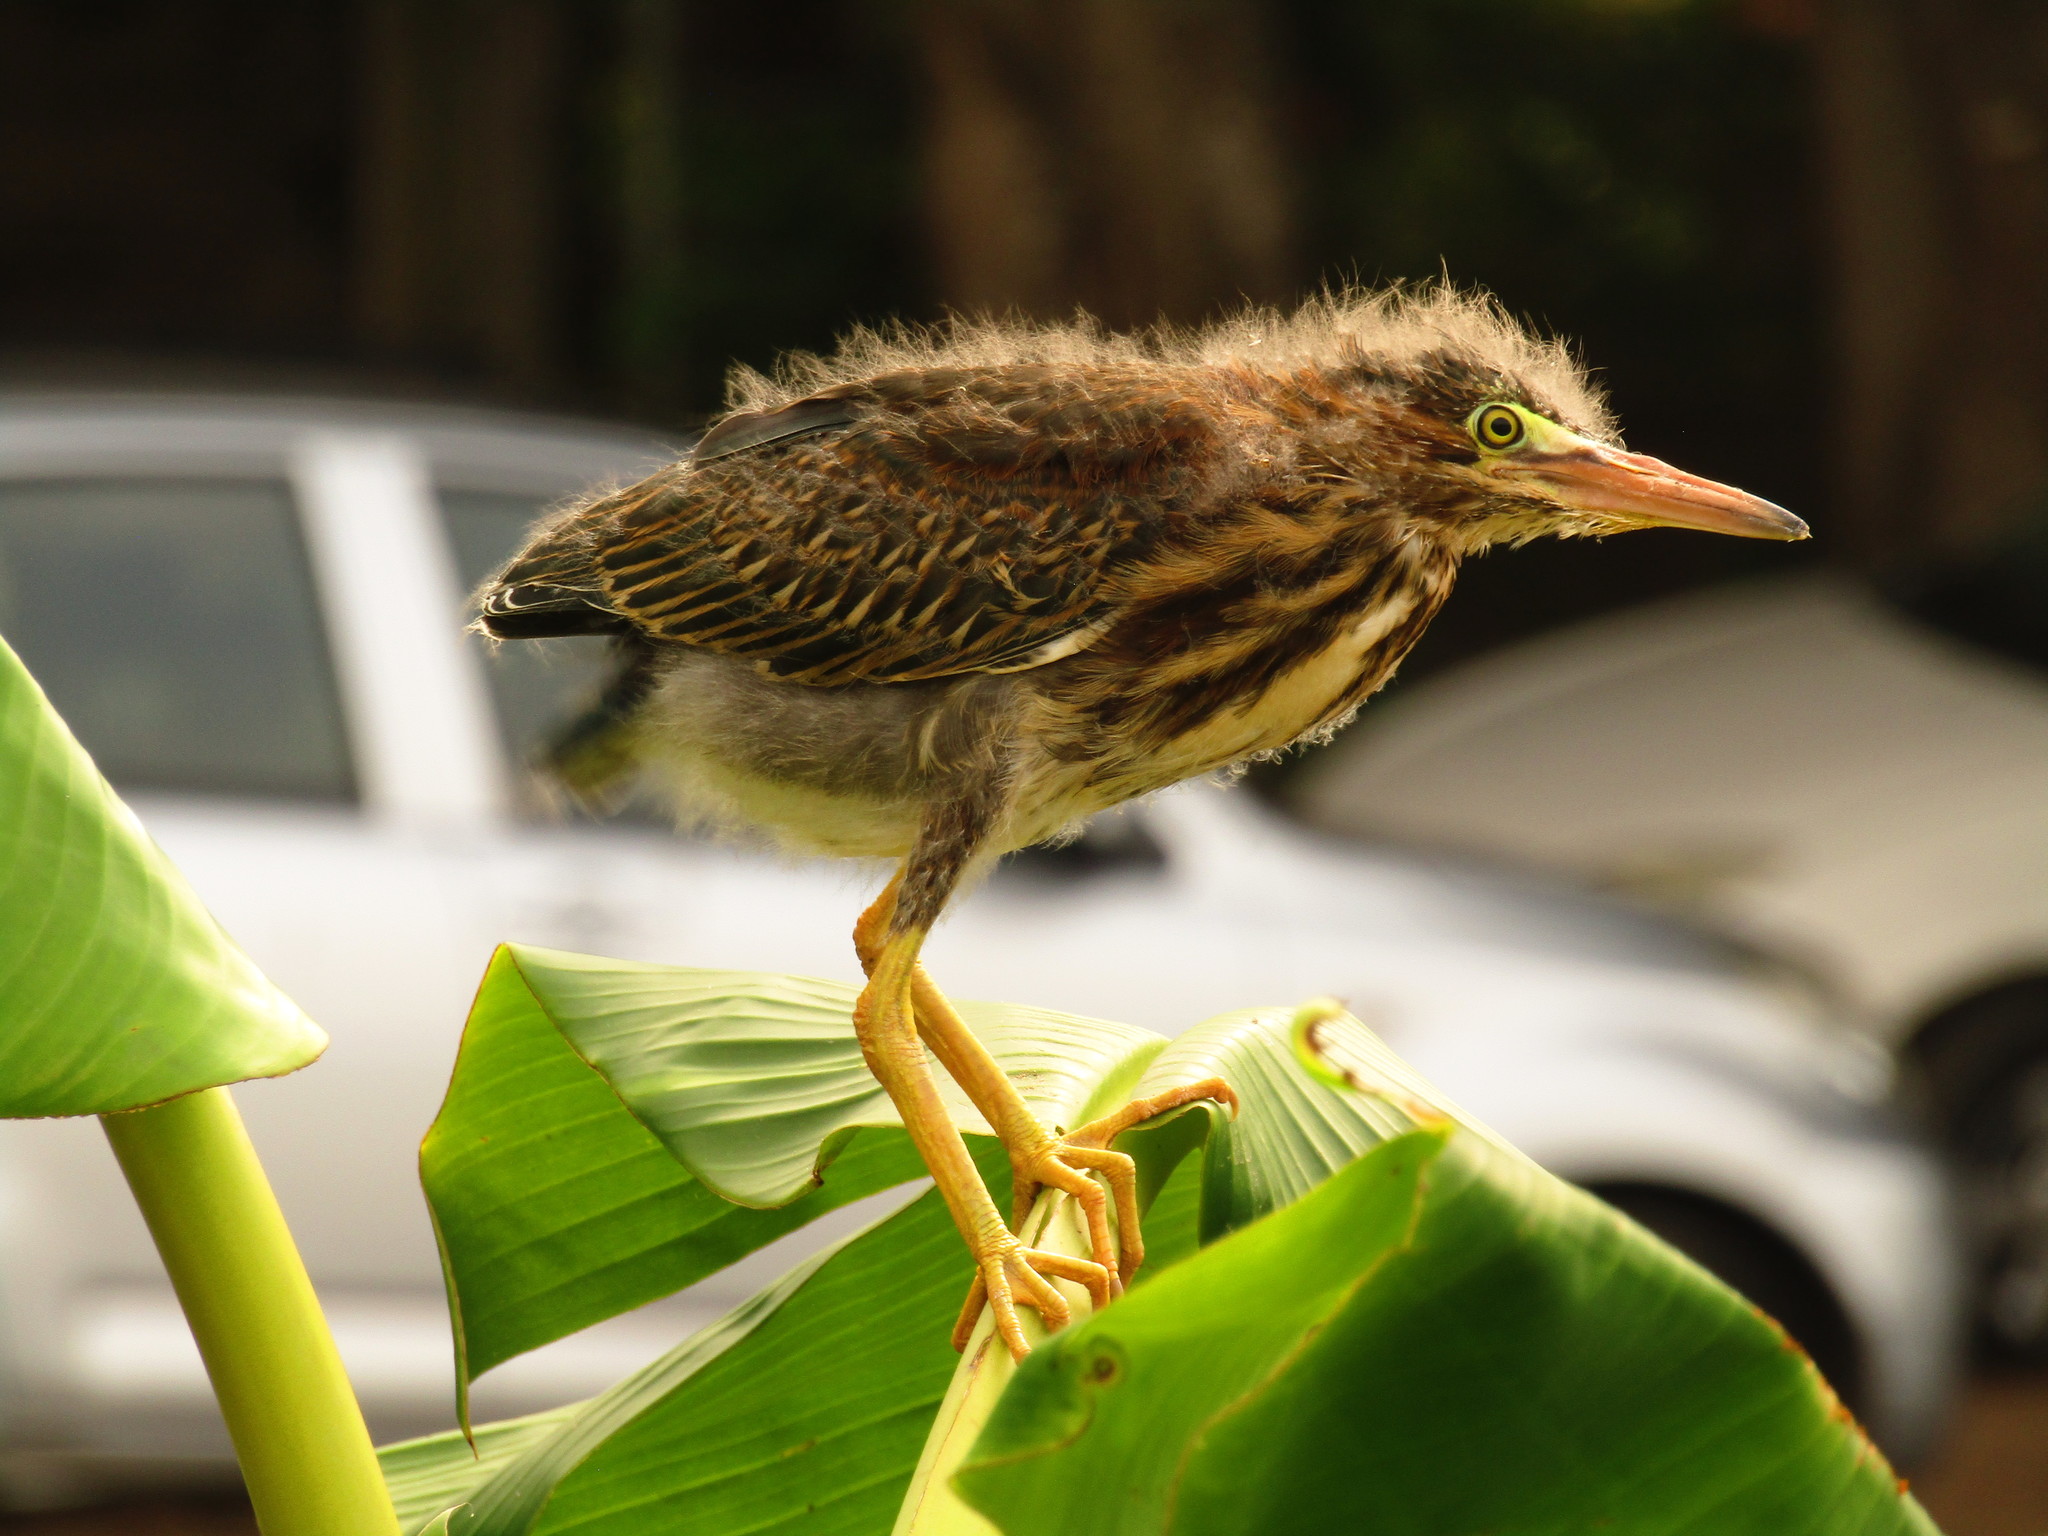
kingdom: Animalia
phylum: Chordata
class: Aves
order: Pelecaniformes
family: Ardeidae
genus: Butorides
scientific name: Butorides virescens
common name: Green heron
